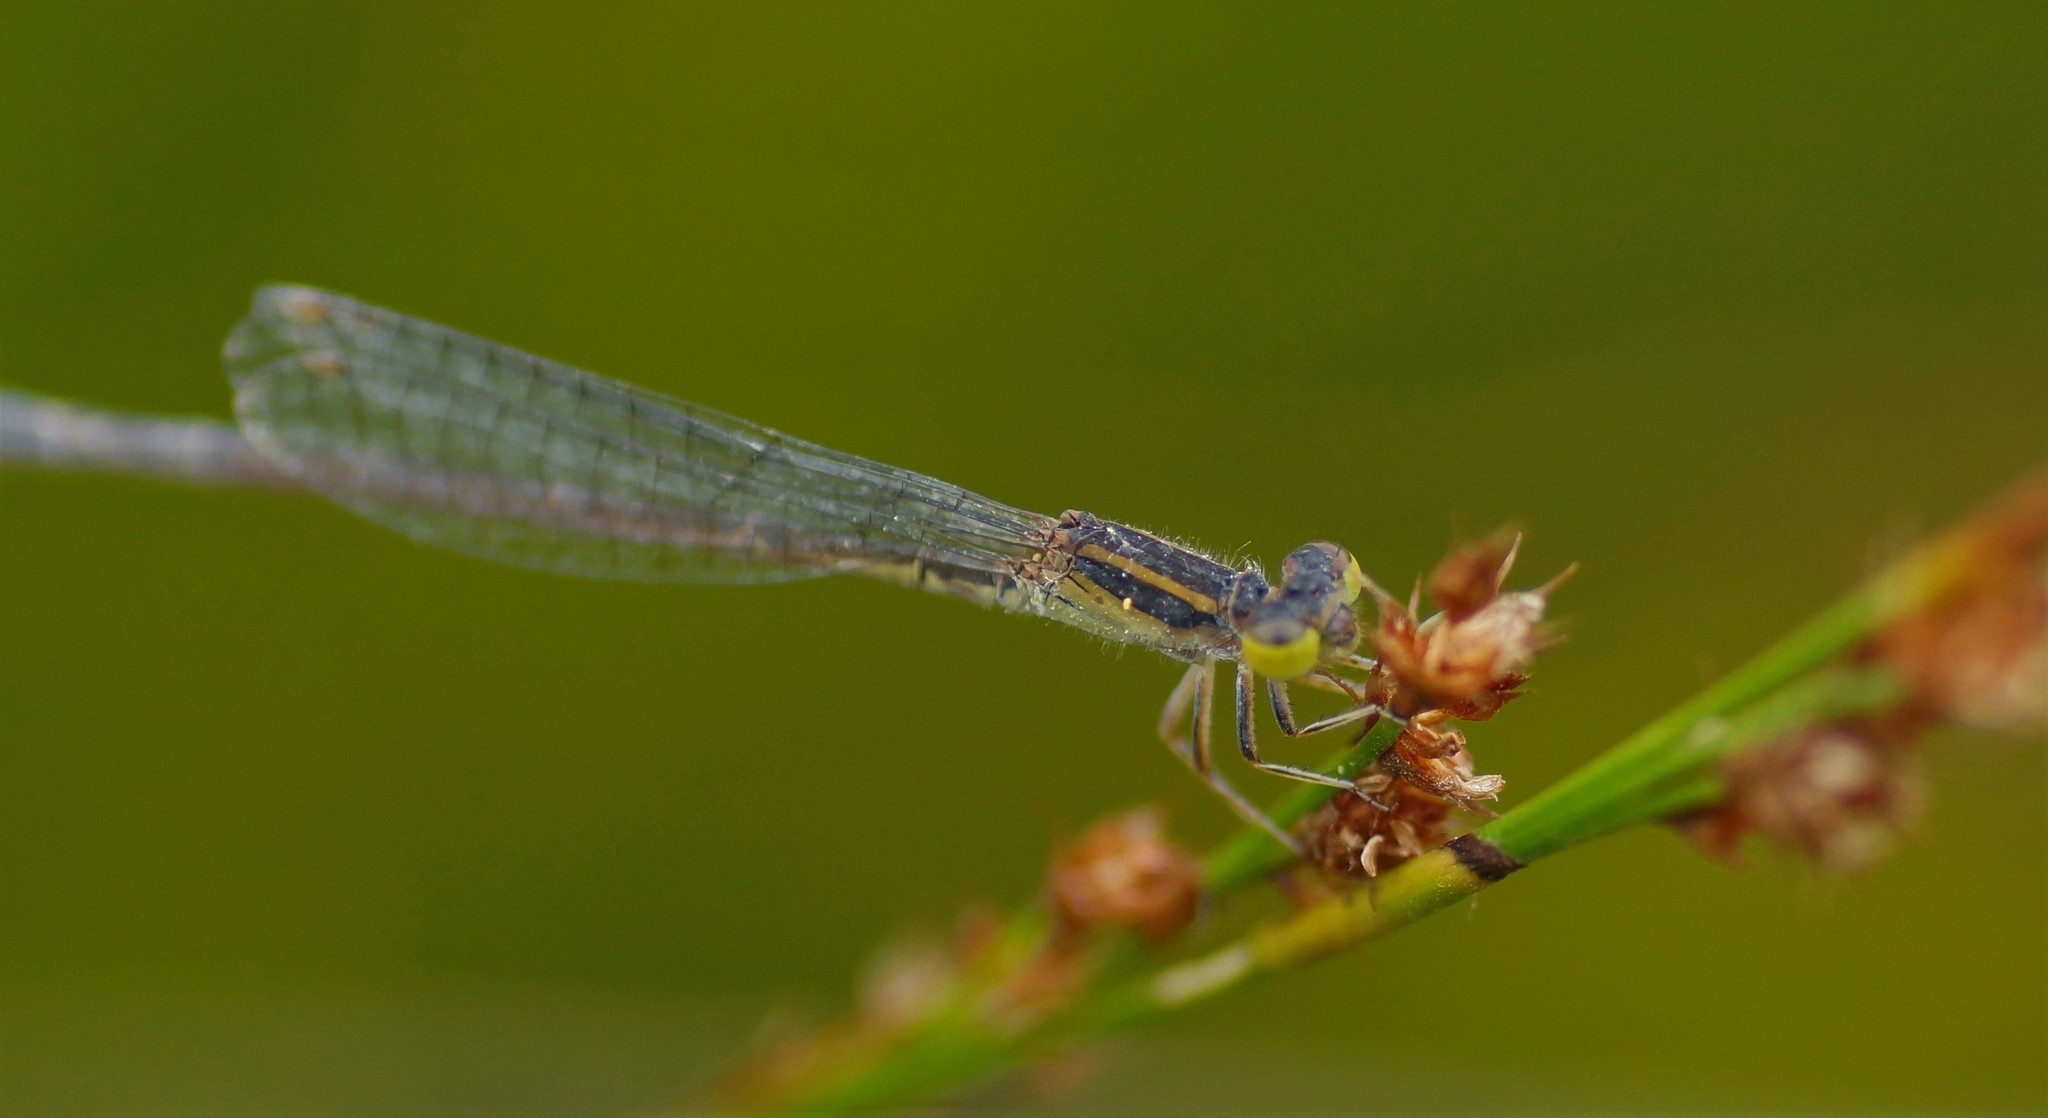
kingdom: Animalia
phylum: Arthropoda
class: Insecta
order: Odonata
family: Coenagrionidae
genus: Ischnura
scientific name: Ischnura aurora
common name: Gossamer damselfly
